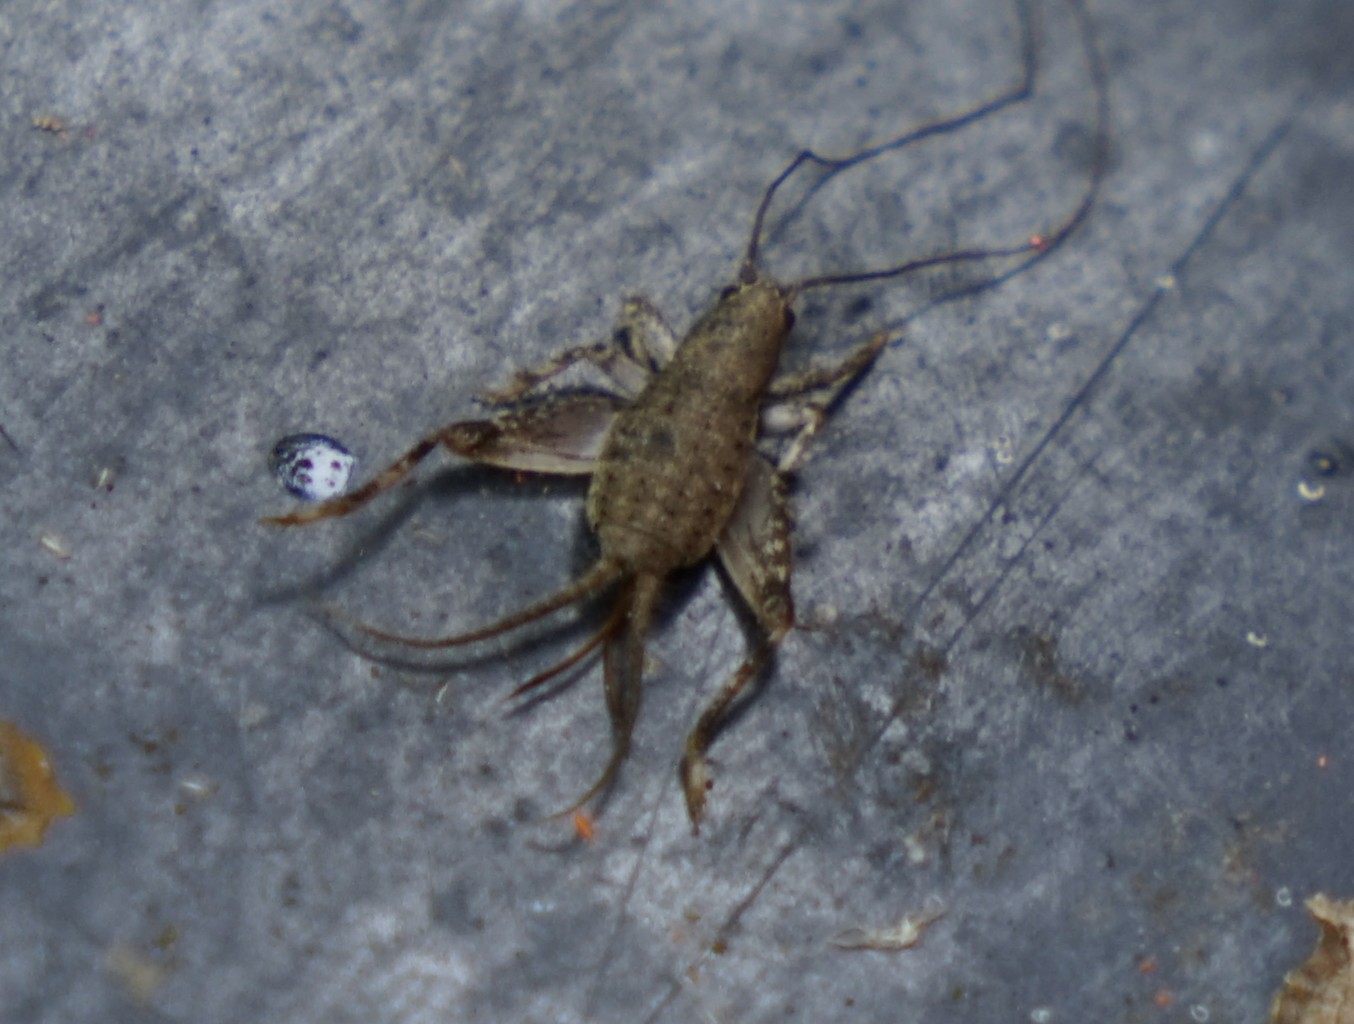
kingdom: Animalia
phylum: Arthropoda
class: Insecta
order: Orthoptera
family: Mogoplistidae
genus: Ectatoderus
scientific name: Ectatoderus tamna
